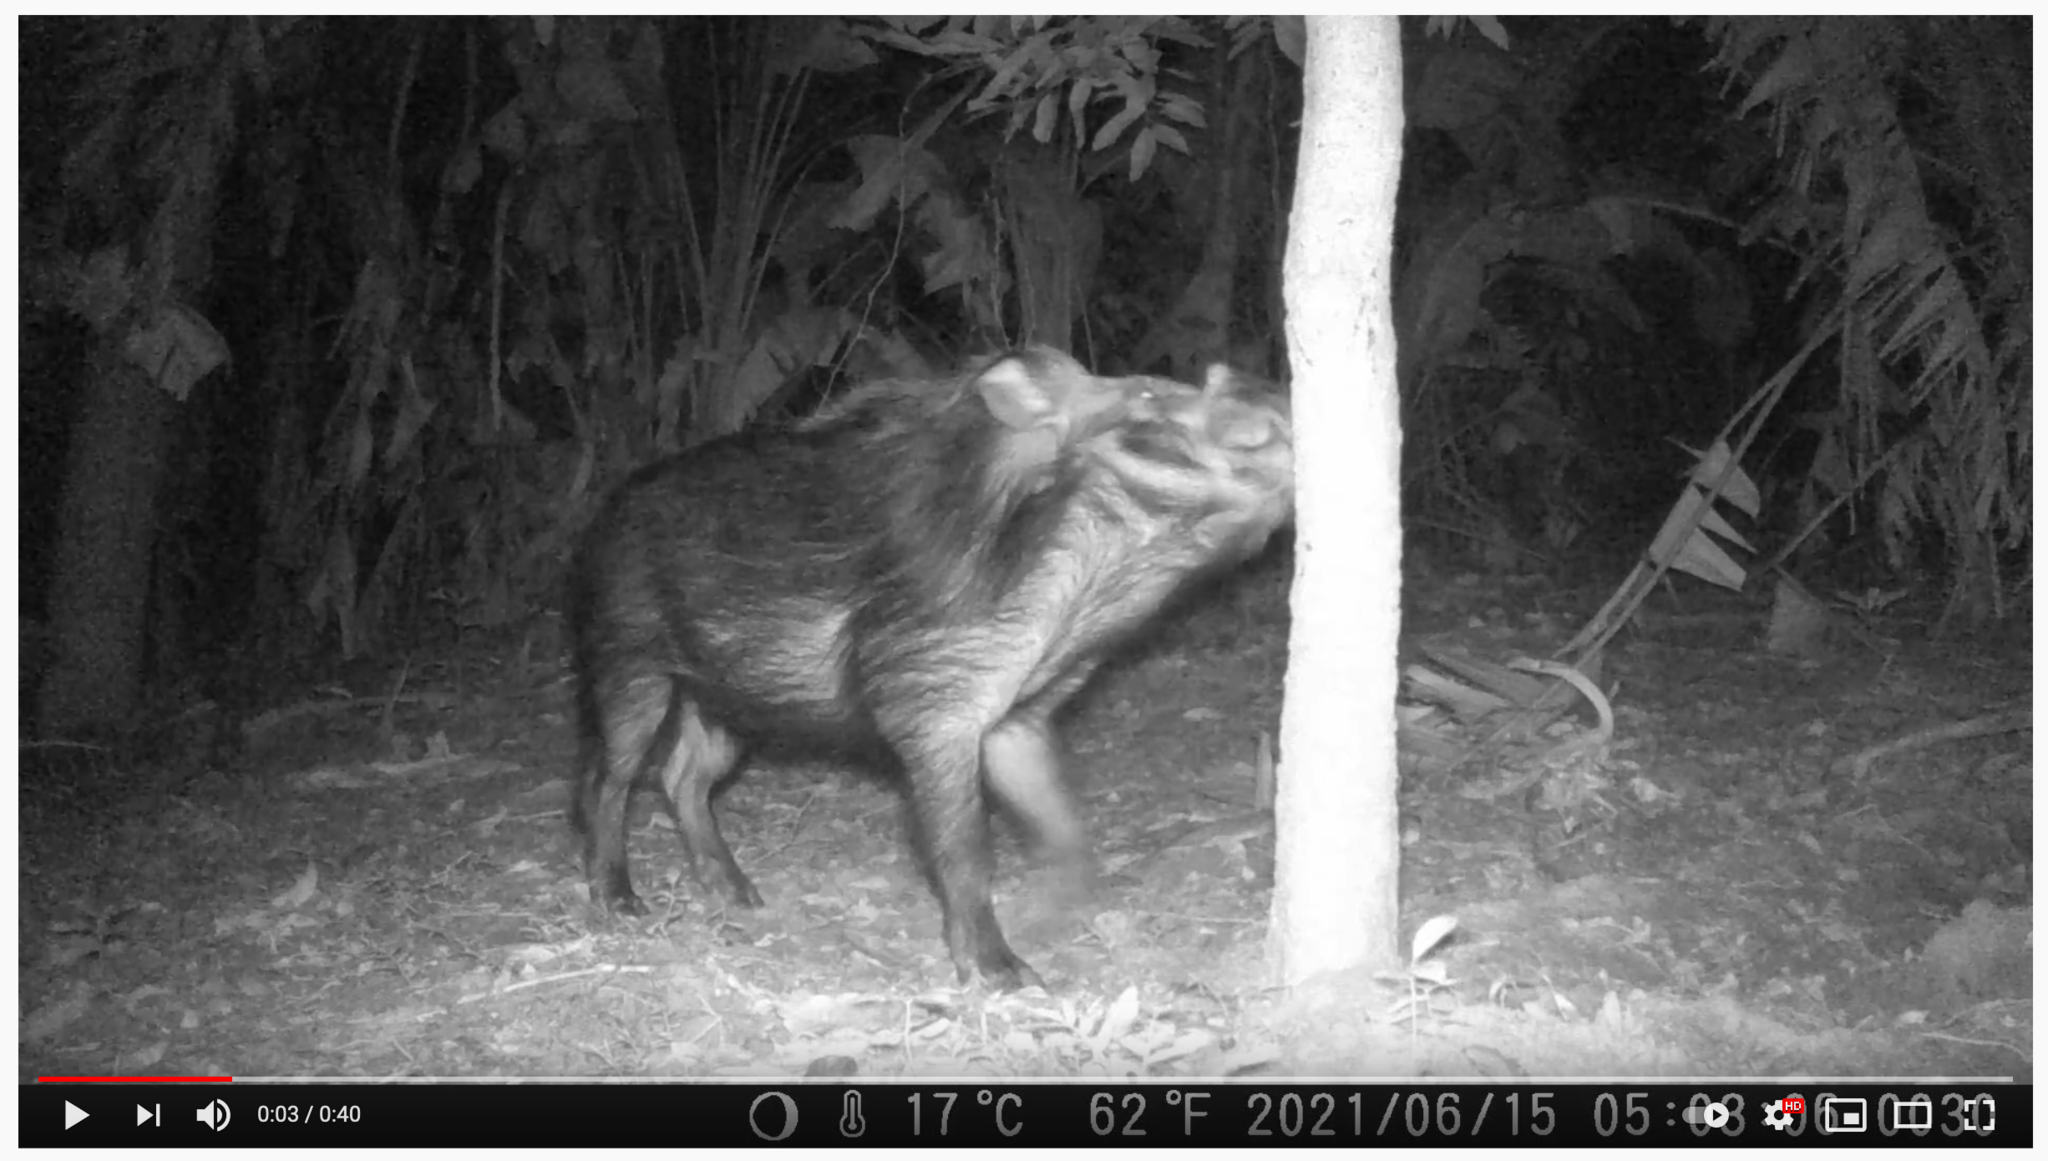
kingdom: Animalia
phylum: Chordata
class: Mammalia
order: Artiodactyla
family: Suidae
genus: Potamochoerus
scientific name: Potamochoerus larvatus
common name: Bushpig
